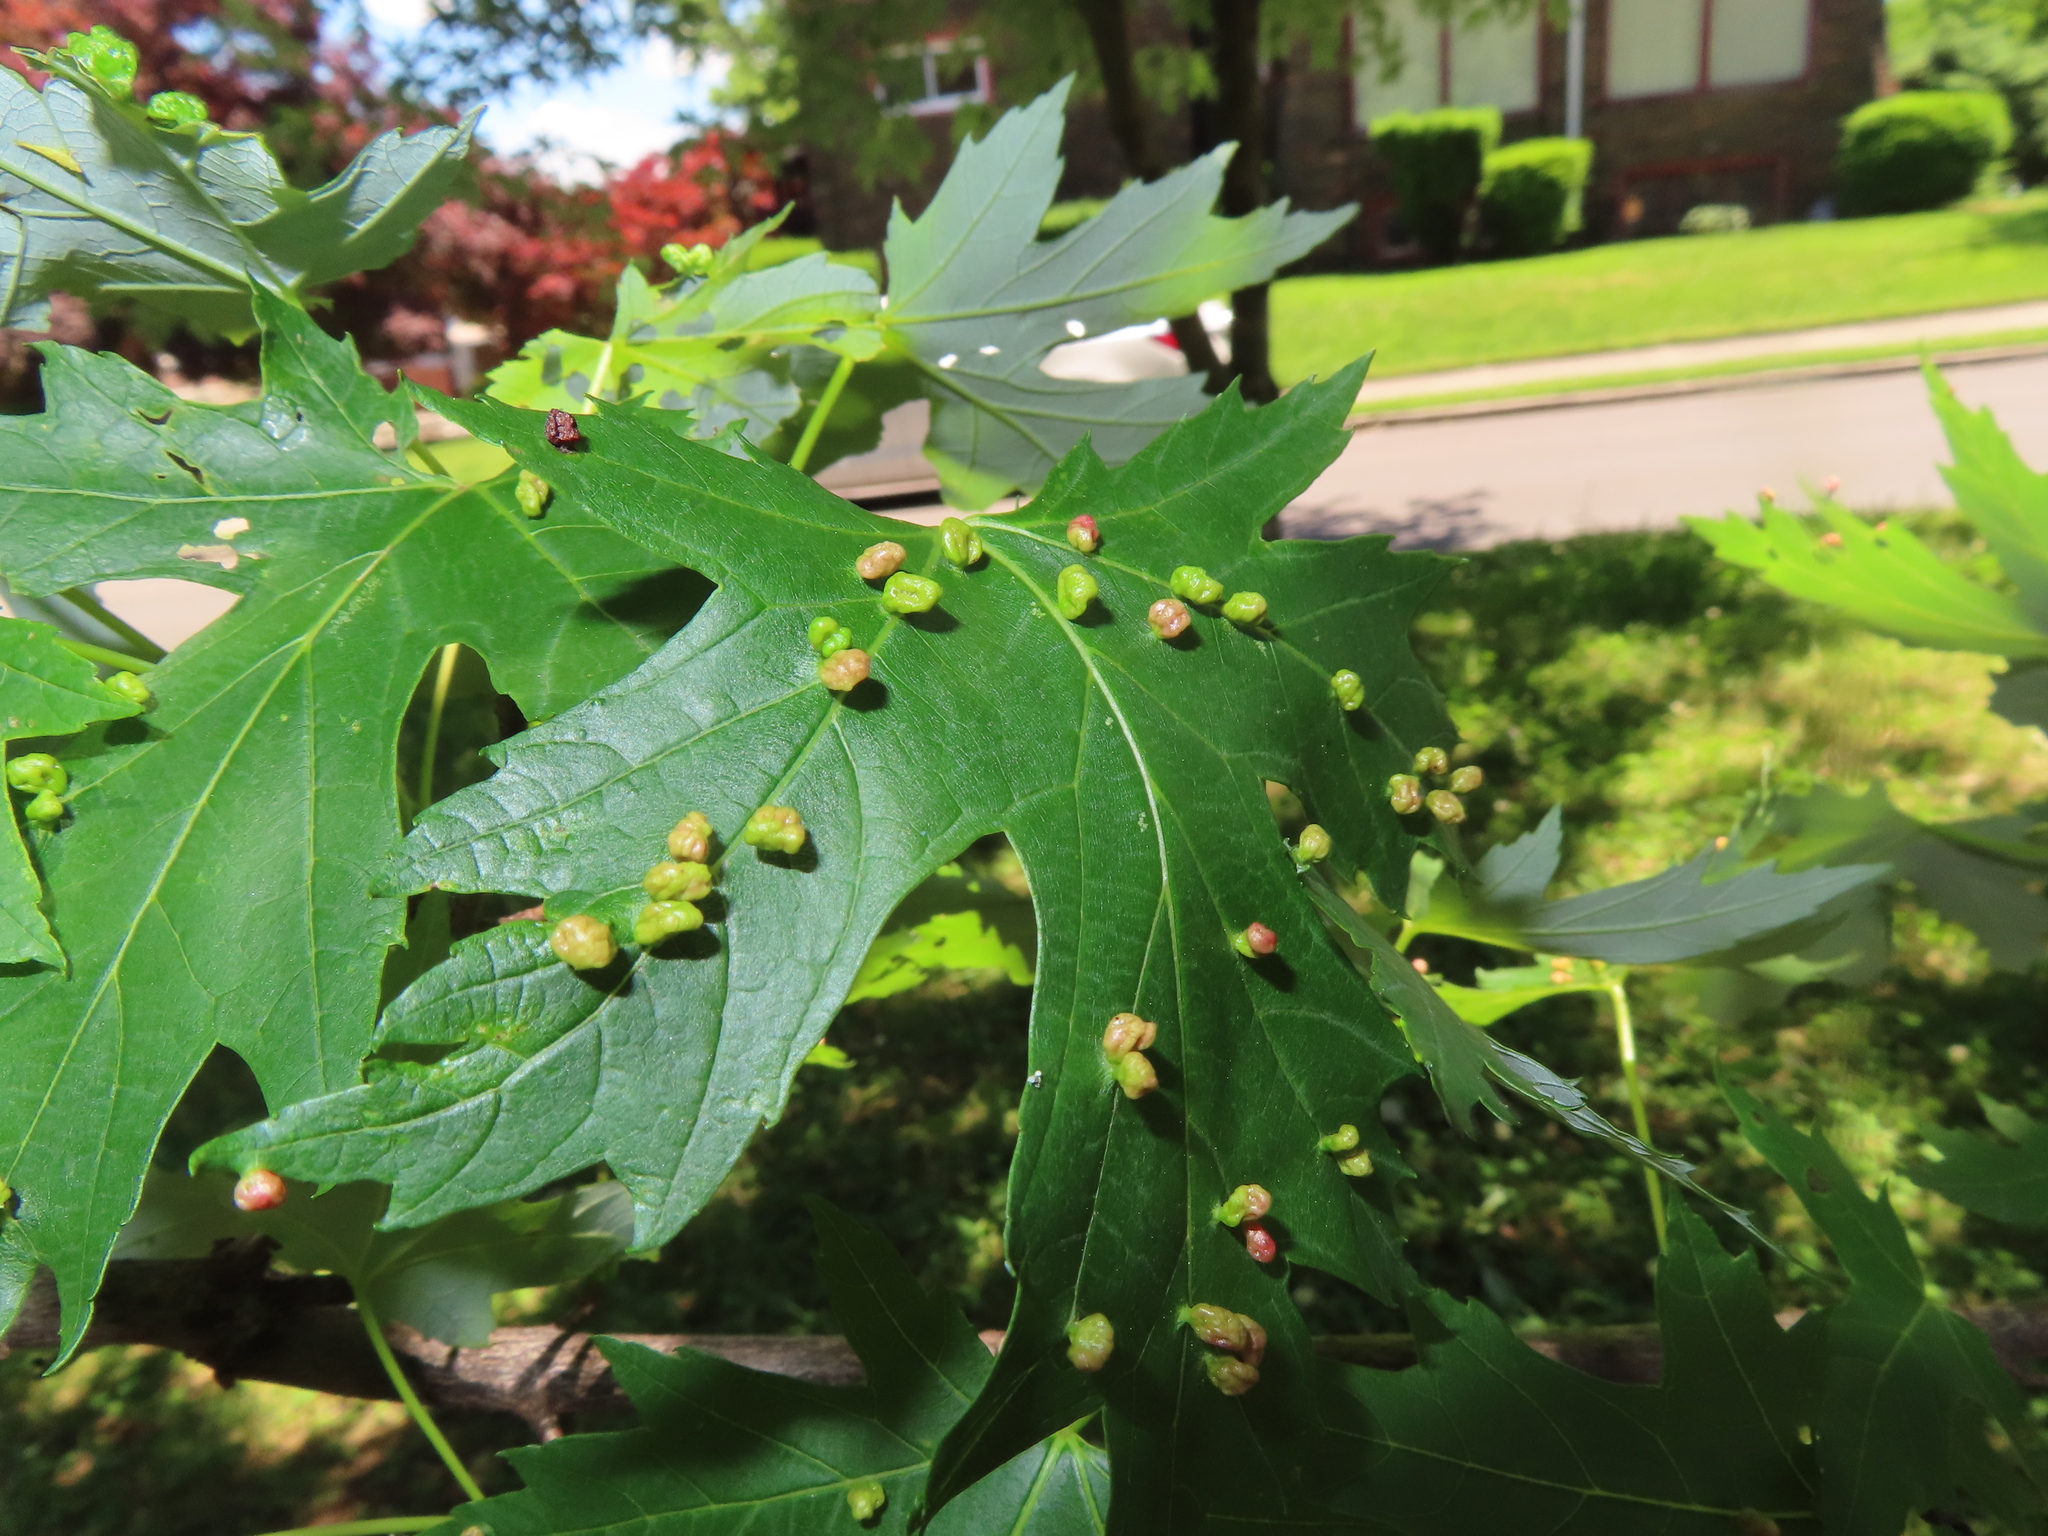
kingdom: Animalia
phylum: Arthropoda
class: Arachnida
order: Trombidiformes
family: Eriophyidae
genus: Vasates
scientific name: Vasates quadripedes
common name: Maple bladder gall mite
